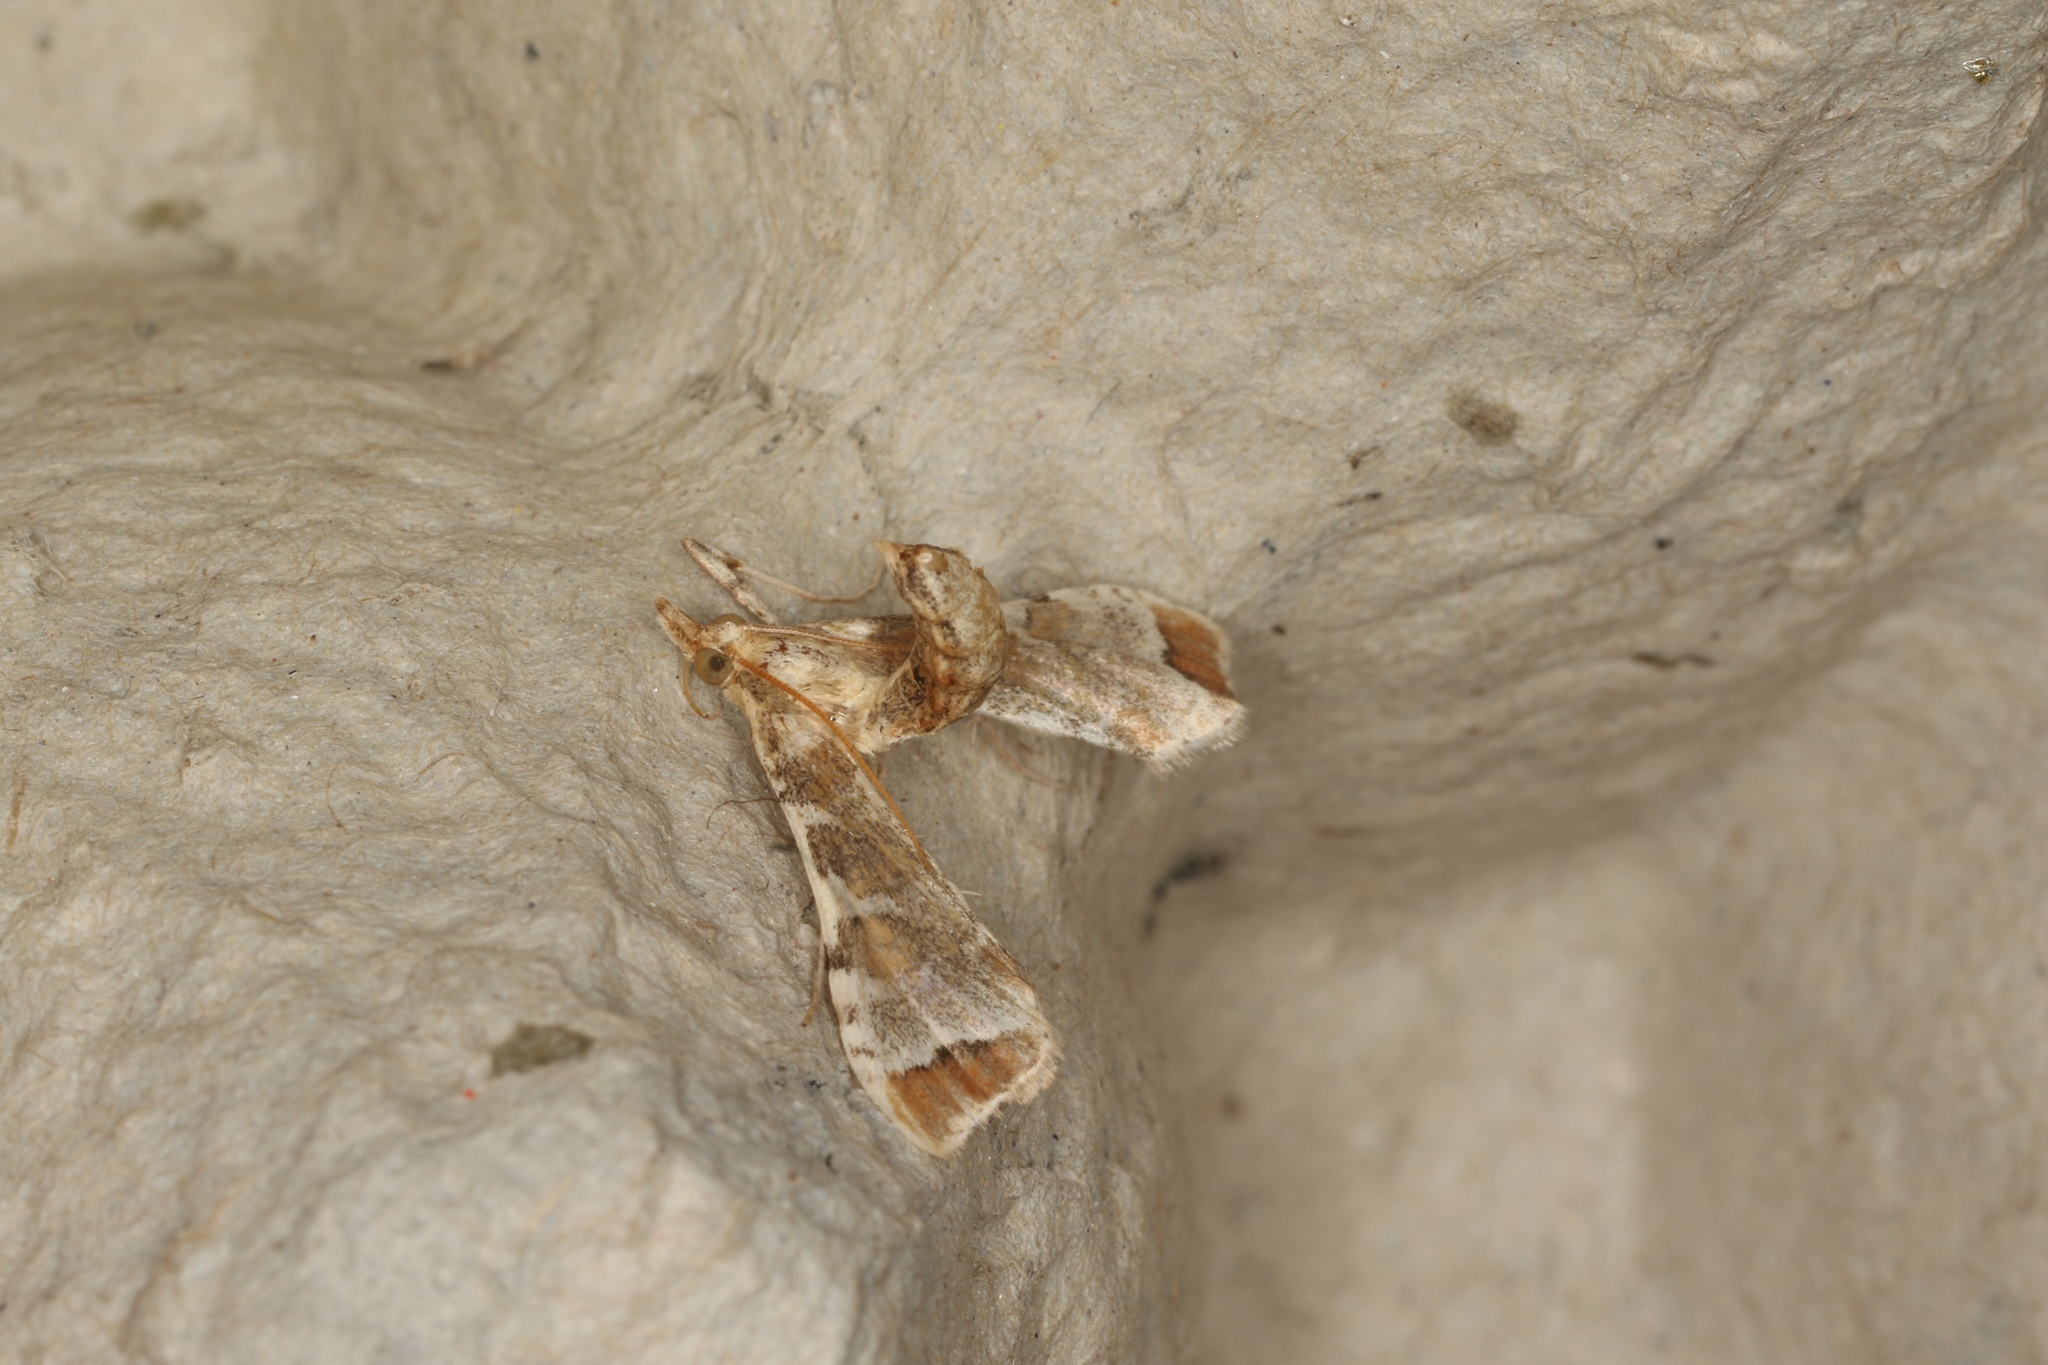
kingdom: Animalia
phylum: Arthropoda
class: Insecta
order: Lepidoptera
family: Crambidae
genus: Sceliodes
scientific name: Sceliodes cordalis
